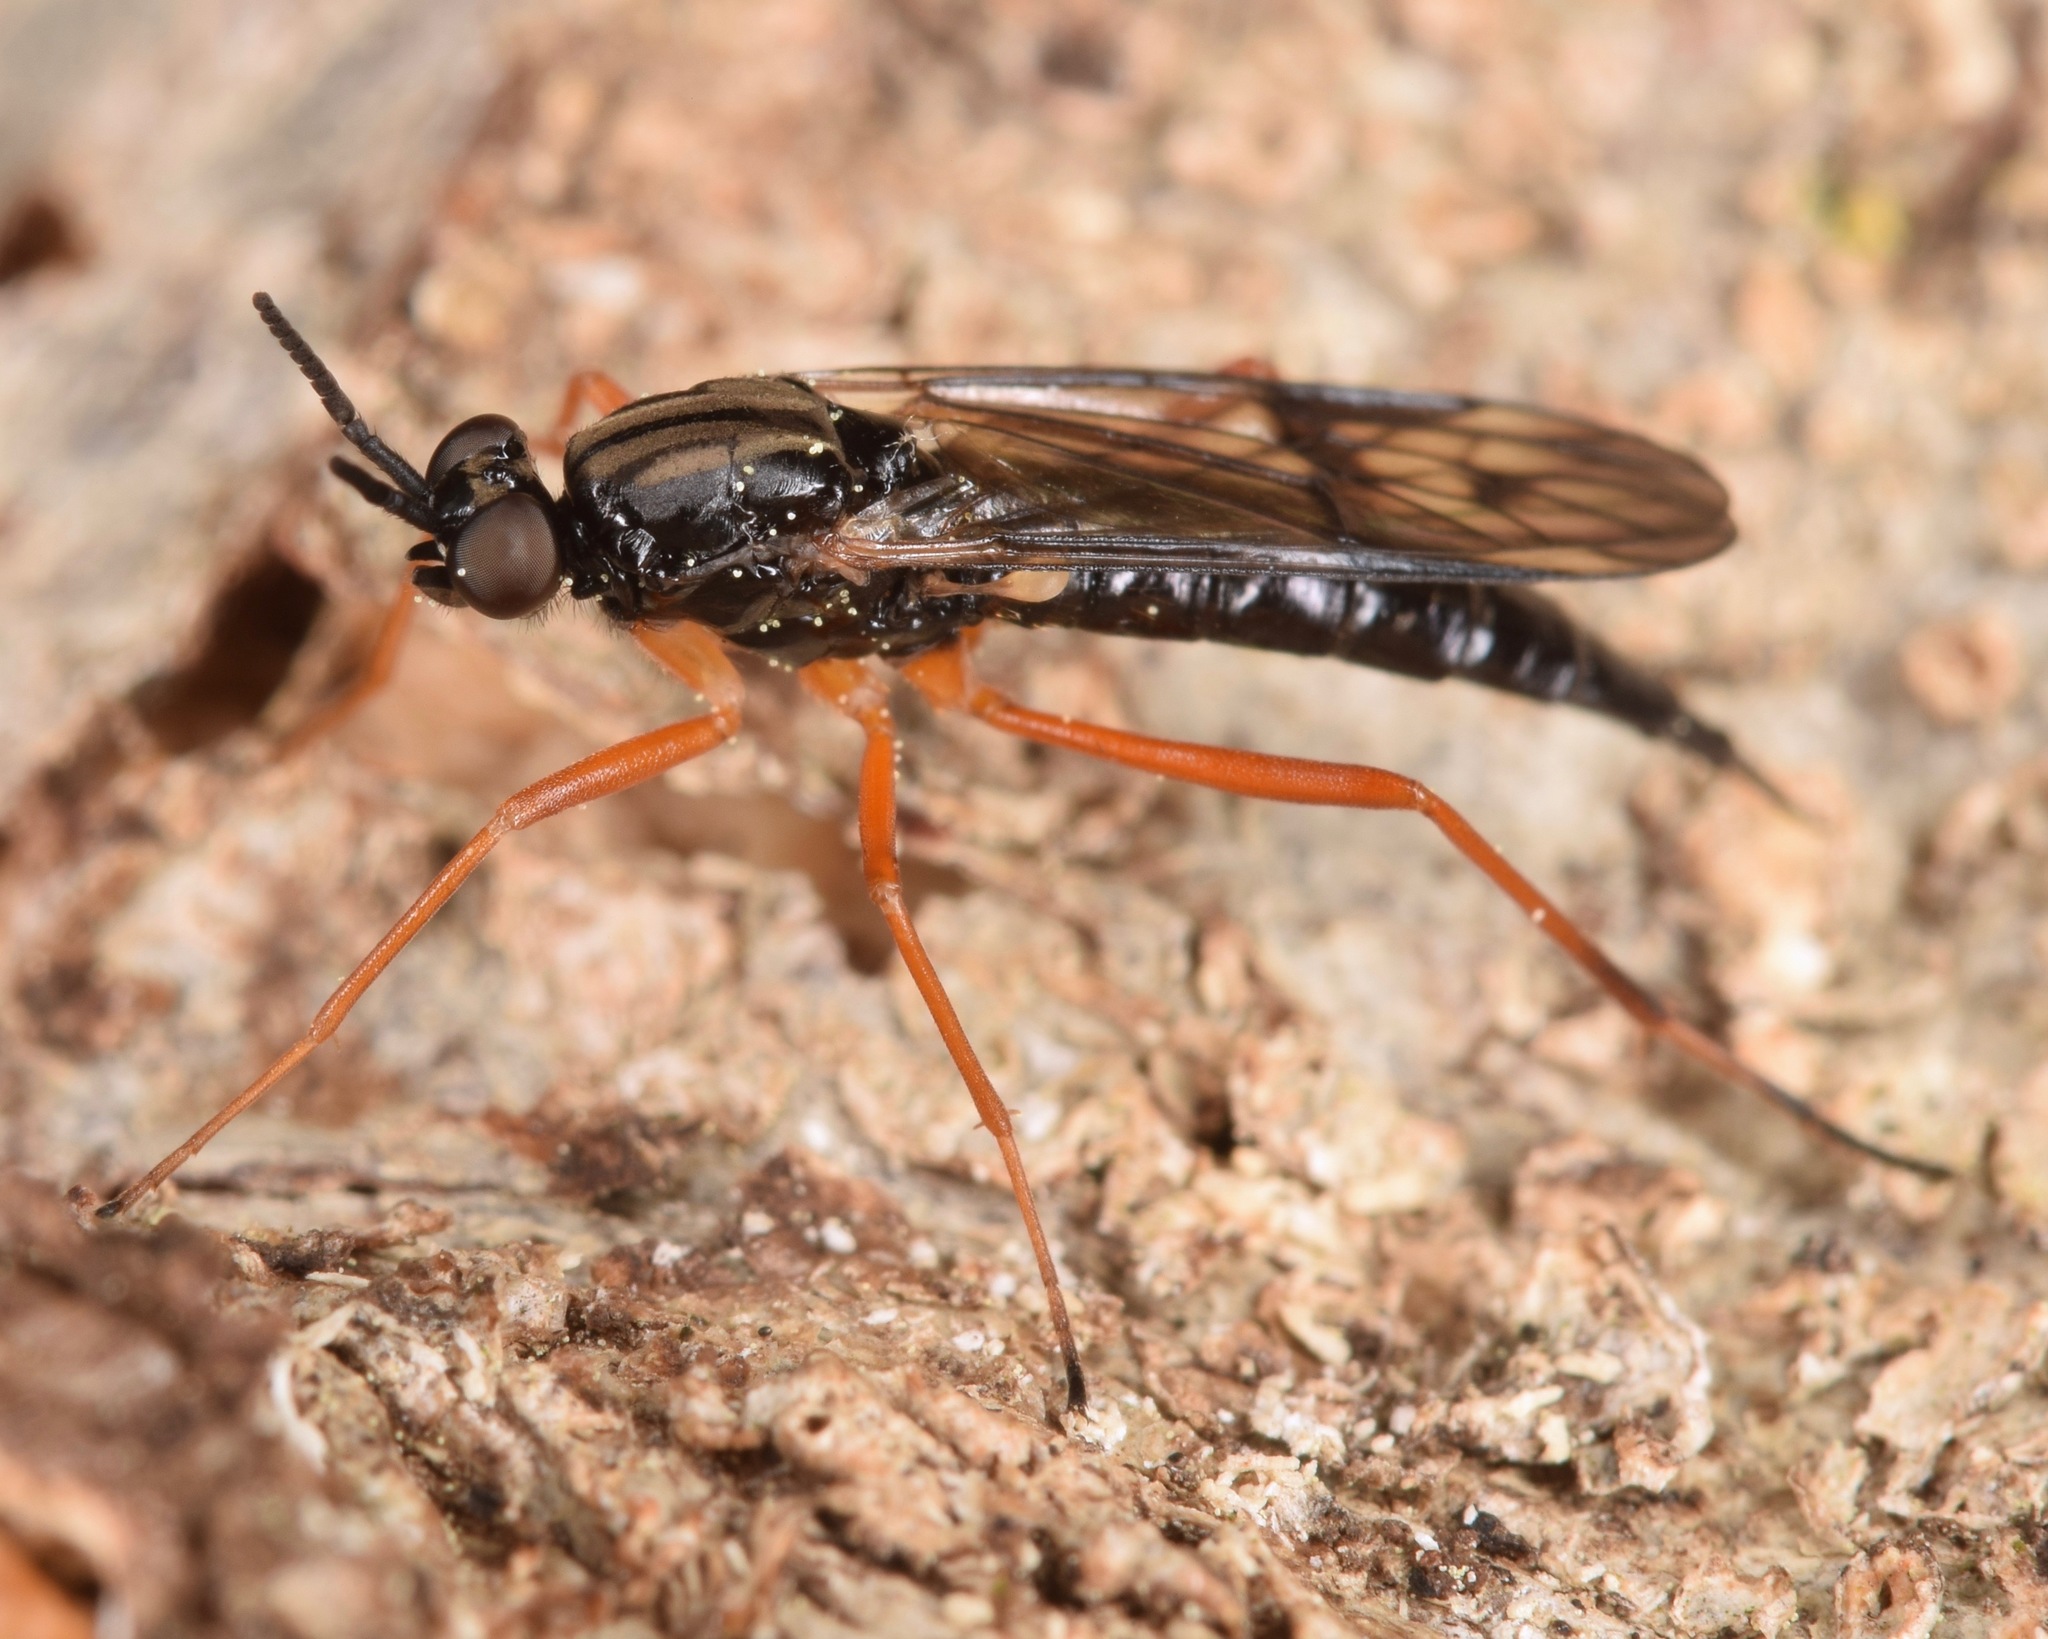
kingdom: Animalia
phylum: Arthropoda
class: Insecta
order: Diptera
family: Xylophagidae
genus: Xylophagus
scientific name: Xylophagus reflectens
